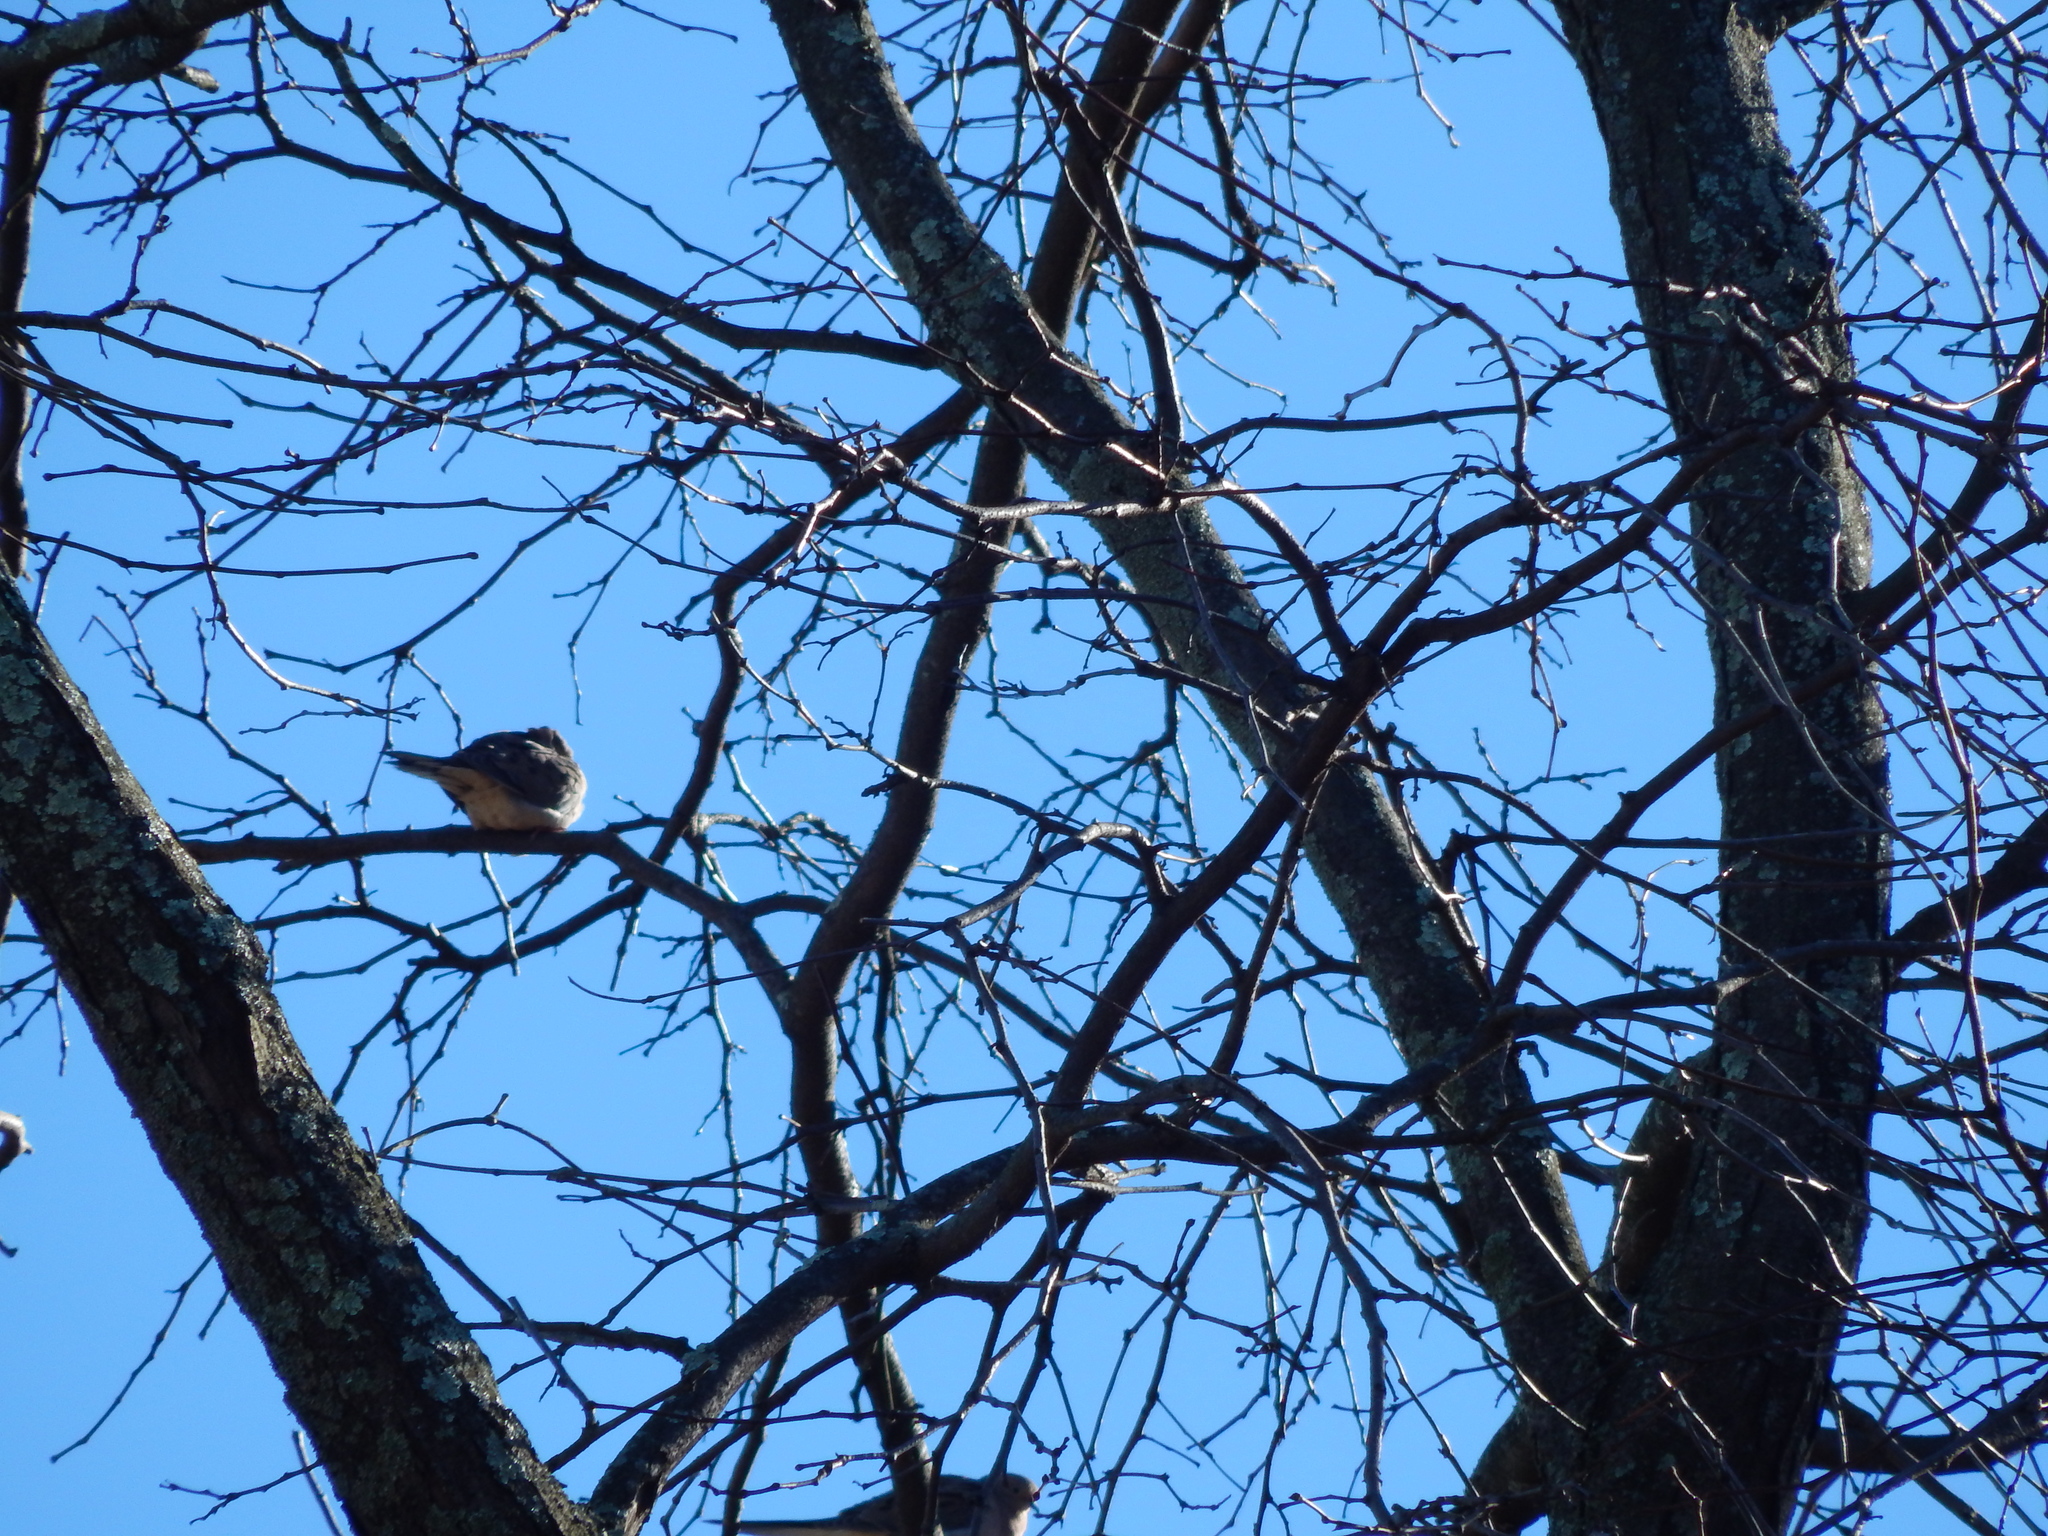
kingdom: Animalia
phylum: Chordata
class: Aves
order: Columbiformes
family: Columbidae
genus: Zenaida
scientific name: Zenaida macroura
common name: Mourning dove
